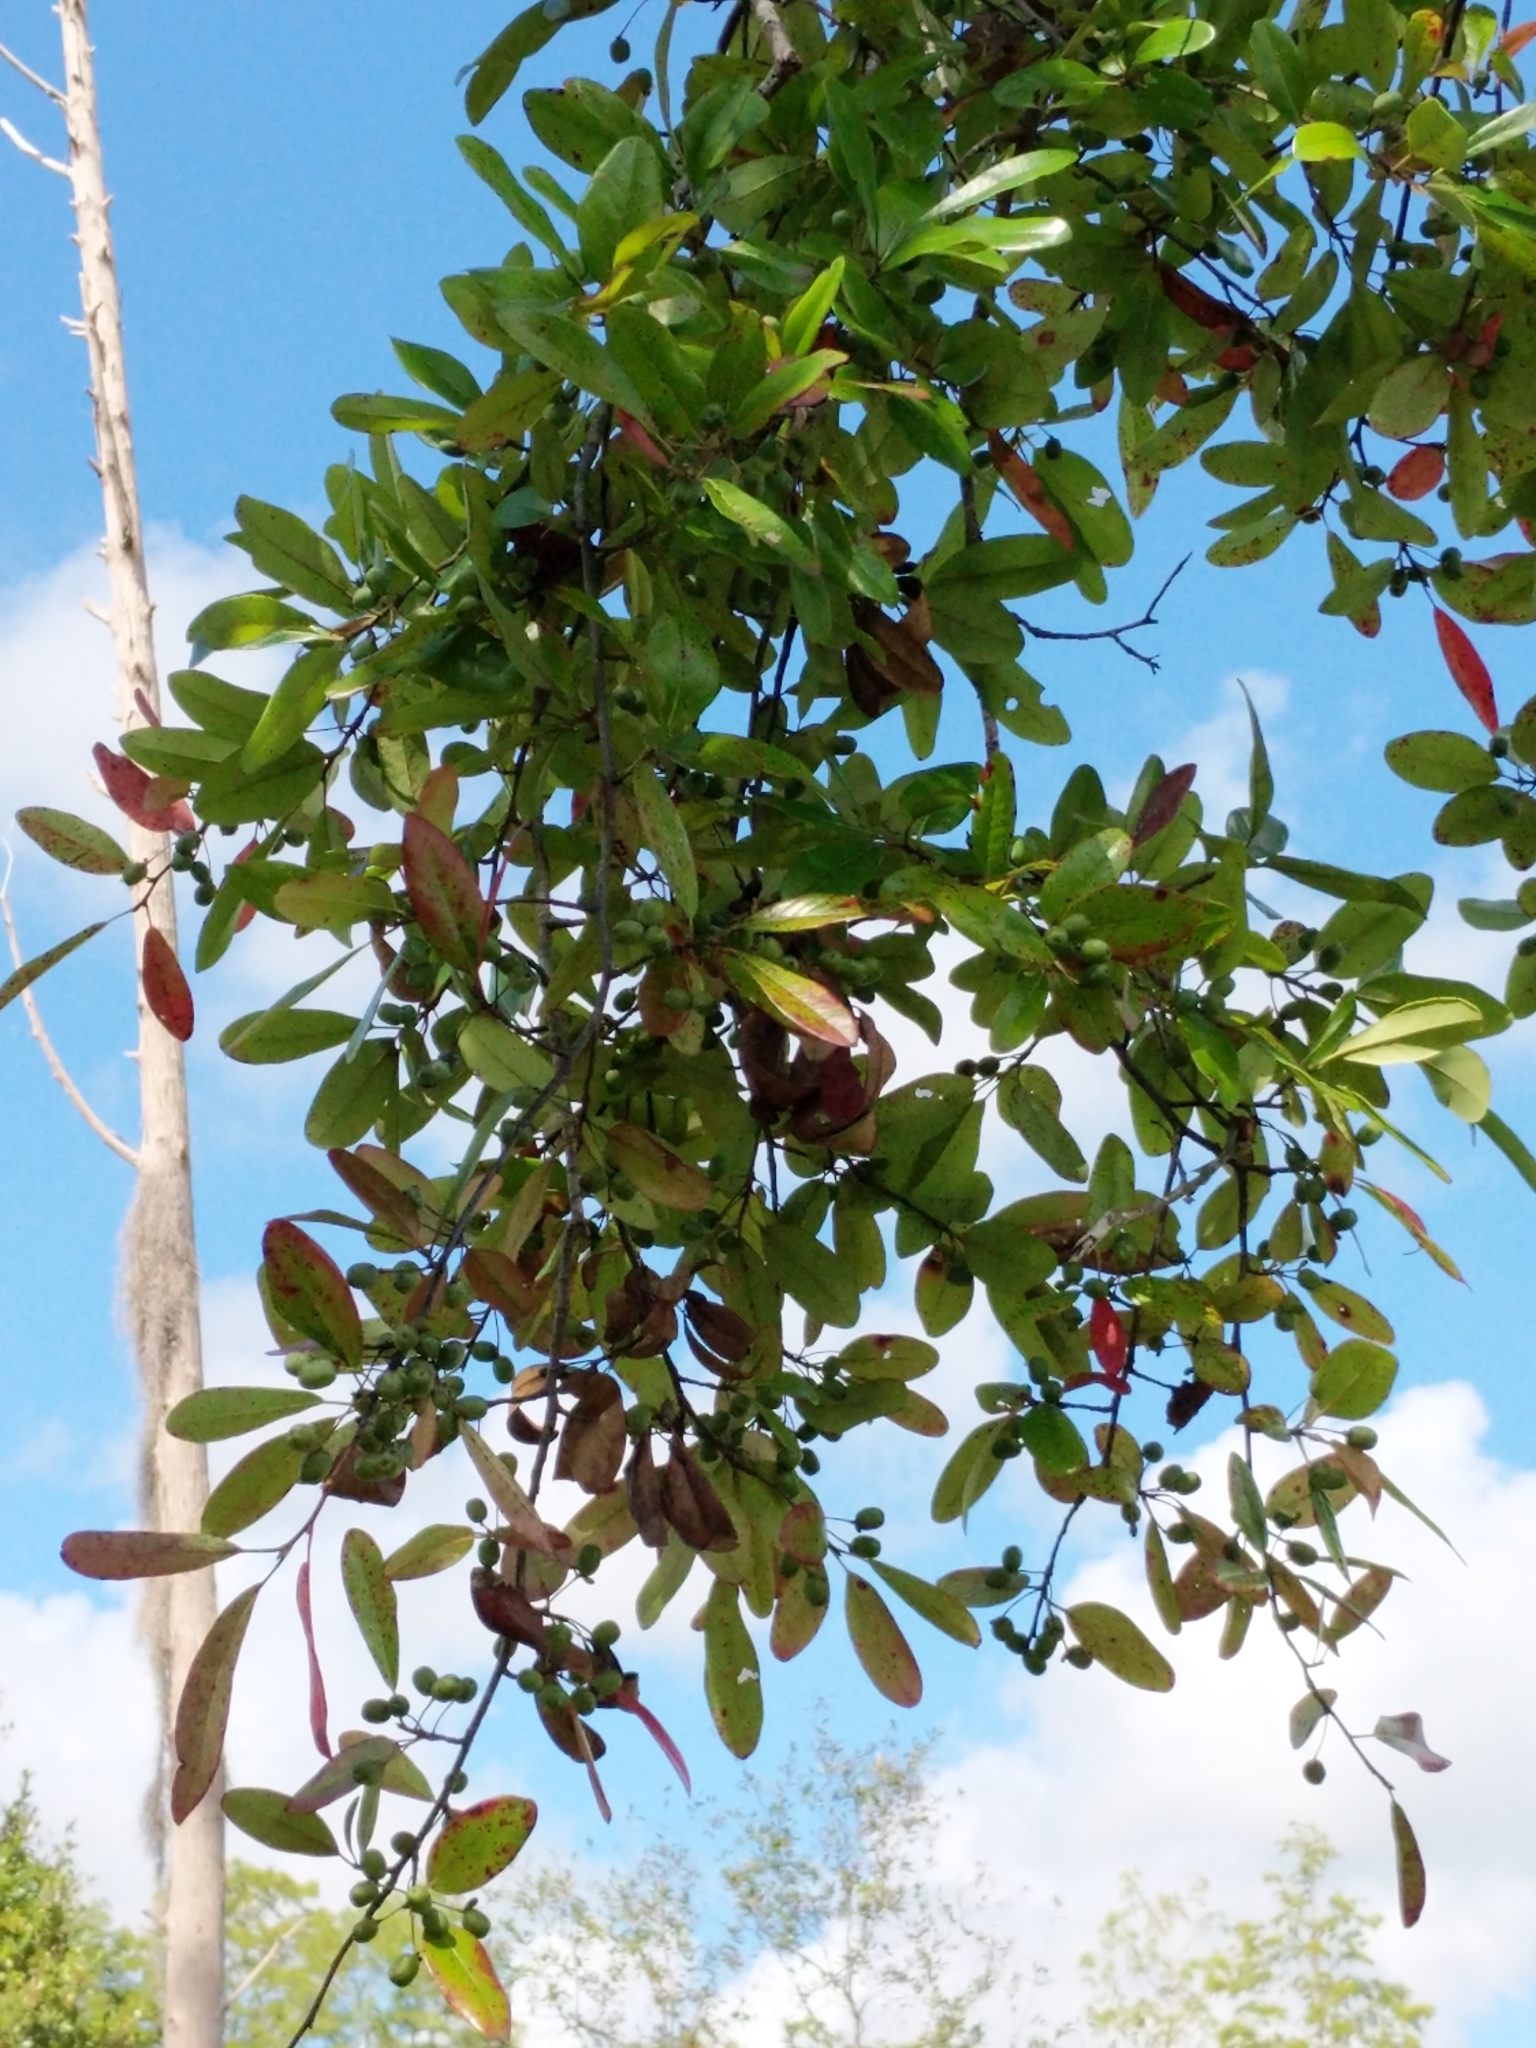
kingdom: Plantae
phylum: Tracheophyta
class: Magnoliopsida
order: Cornales
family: Nyssaceae
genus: Nyssa
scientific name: Nyssa biflora
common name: Swamp blackgum
